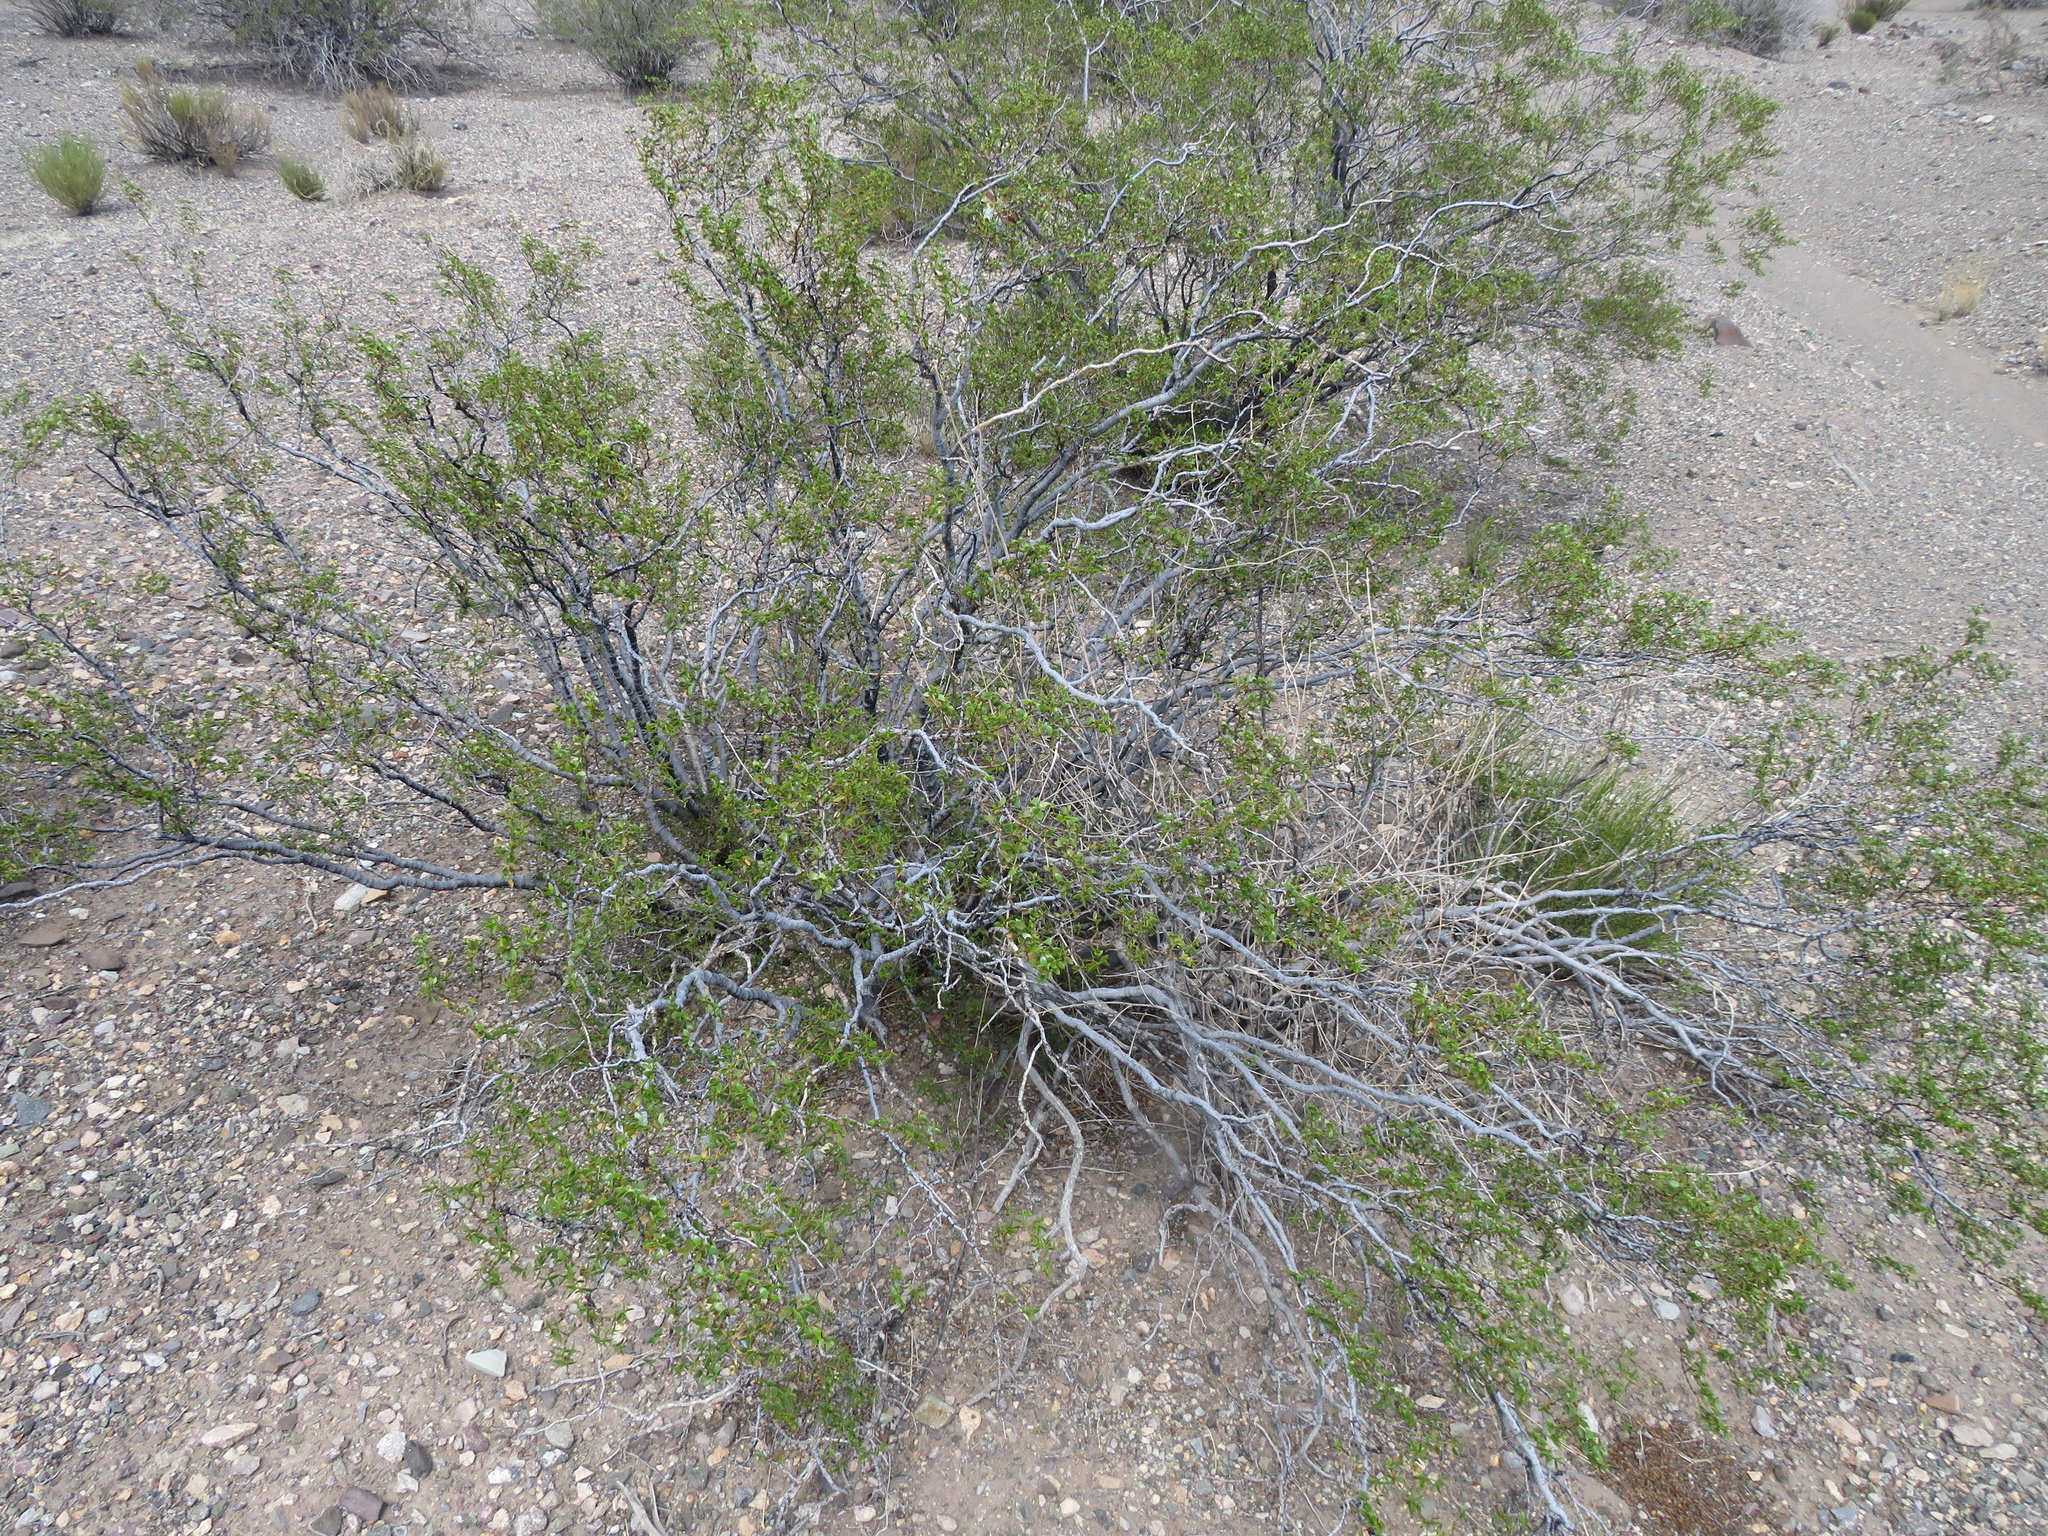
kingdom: Plantae
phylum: Tracheophyta
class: Magnoliopsida
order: Zygophyllales
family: Zygophyllaceae
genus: Larrea
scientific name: Larrea divaricata
